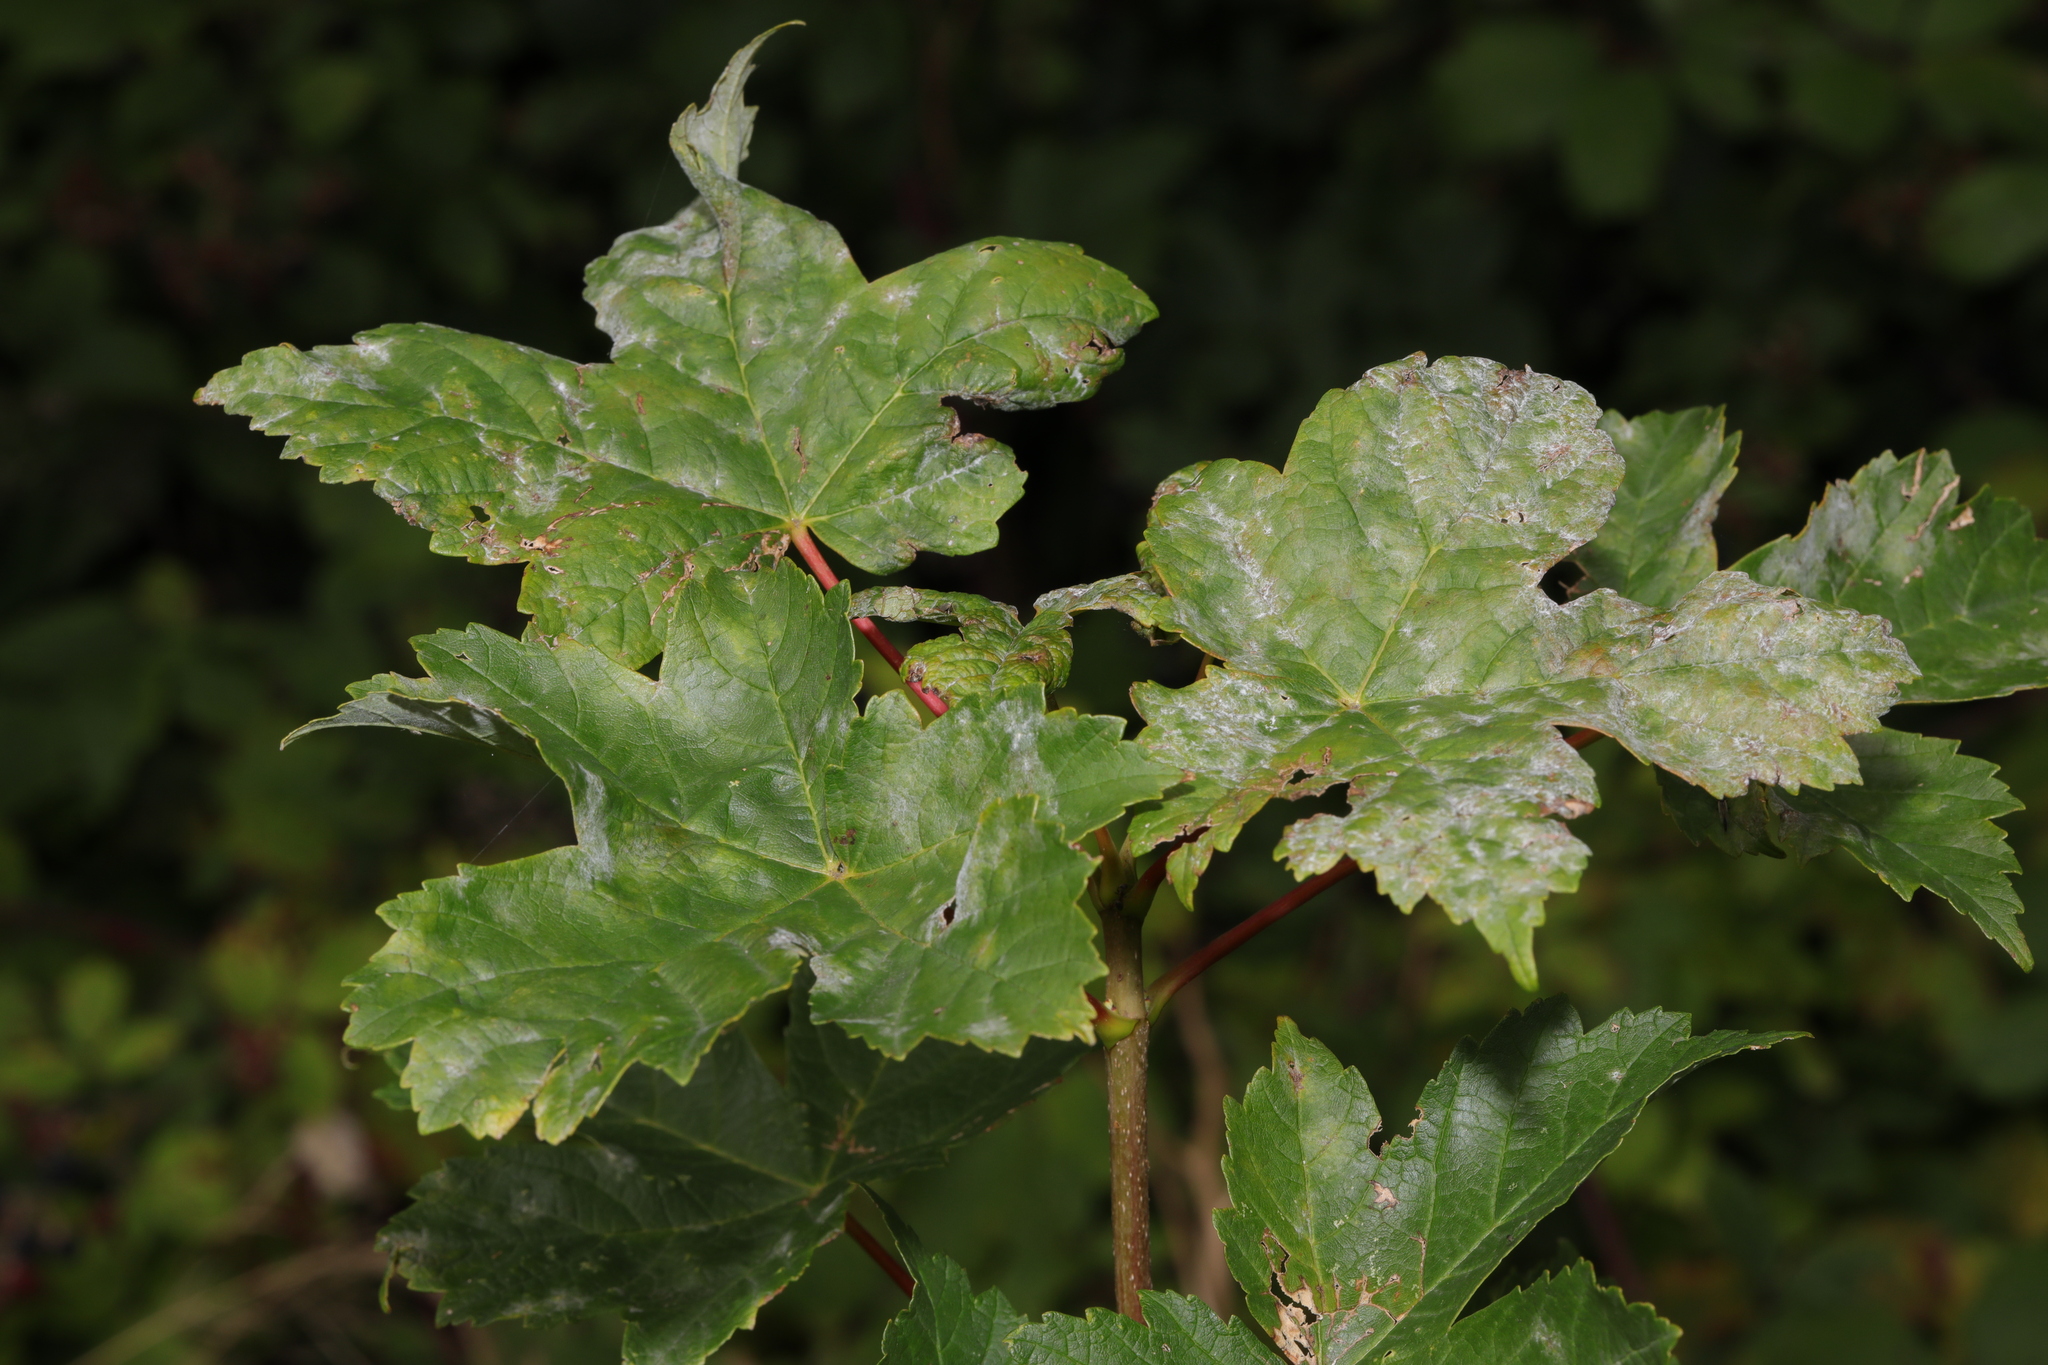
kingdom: Fungi
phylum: Ascomycota
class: Leotiomycetes
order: Helotiales
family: Erysiphaceae
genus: Sawadaea
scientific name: Sawadaea bicornis
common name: Maple mildew
